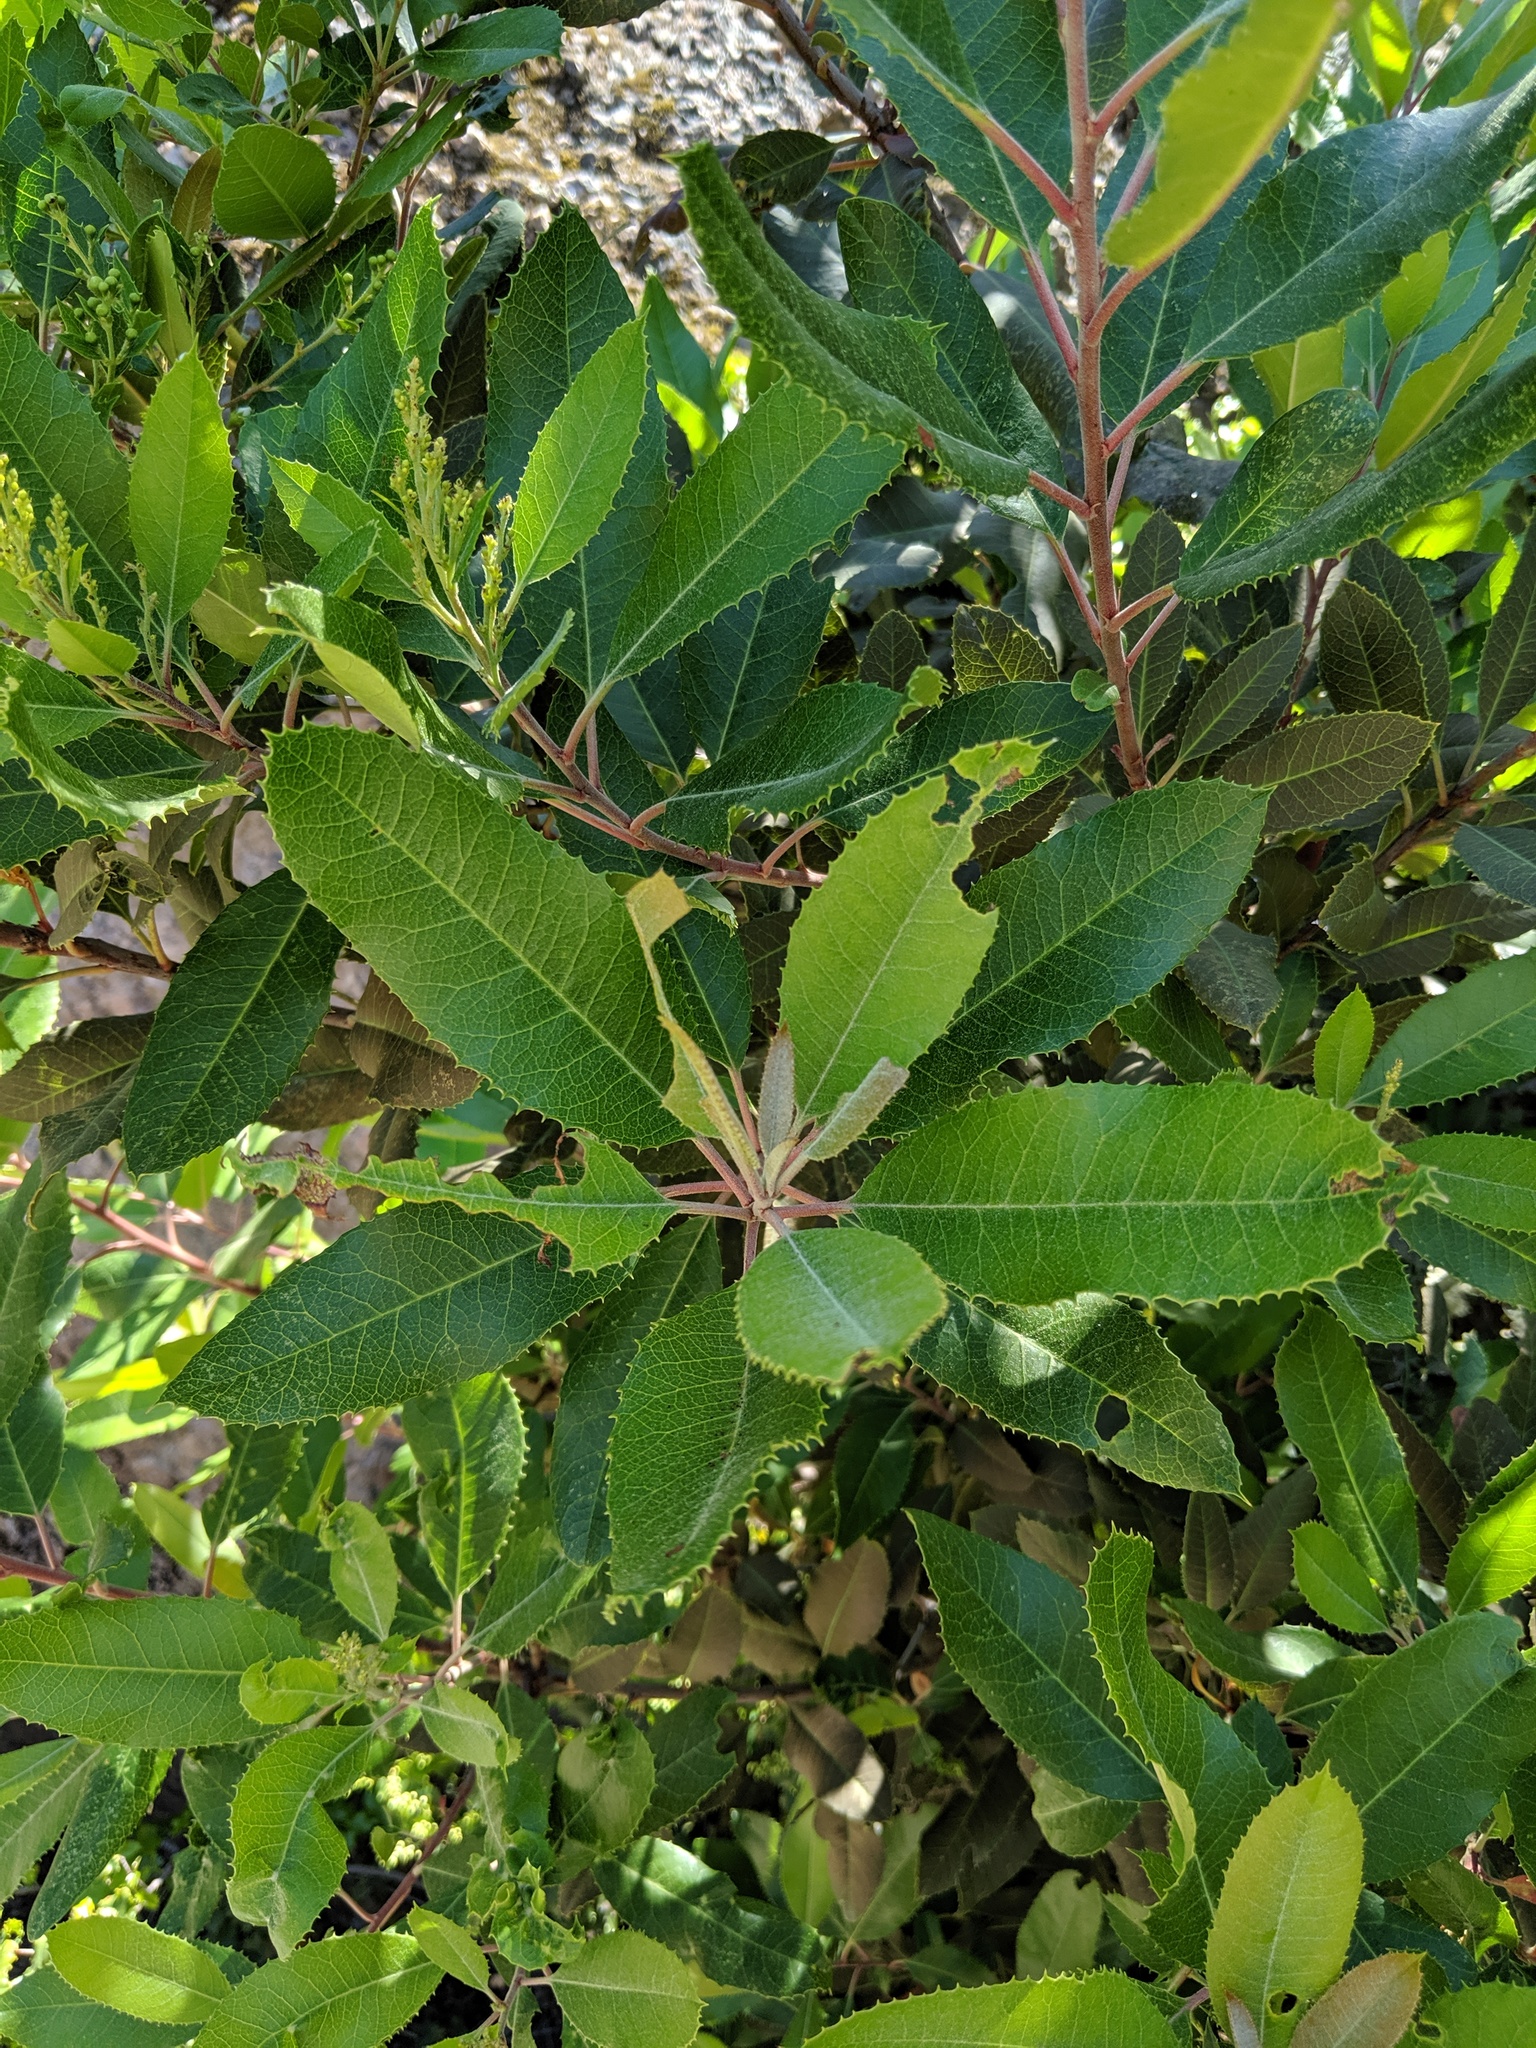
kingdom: Plantae
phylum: Tracheophyta
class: Magnoliopsida
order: Rosales
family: Rosaceae
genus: Heteromeles
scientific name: Heteromeles arbutifolia
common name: California-holly
